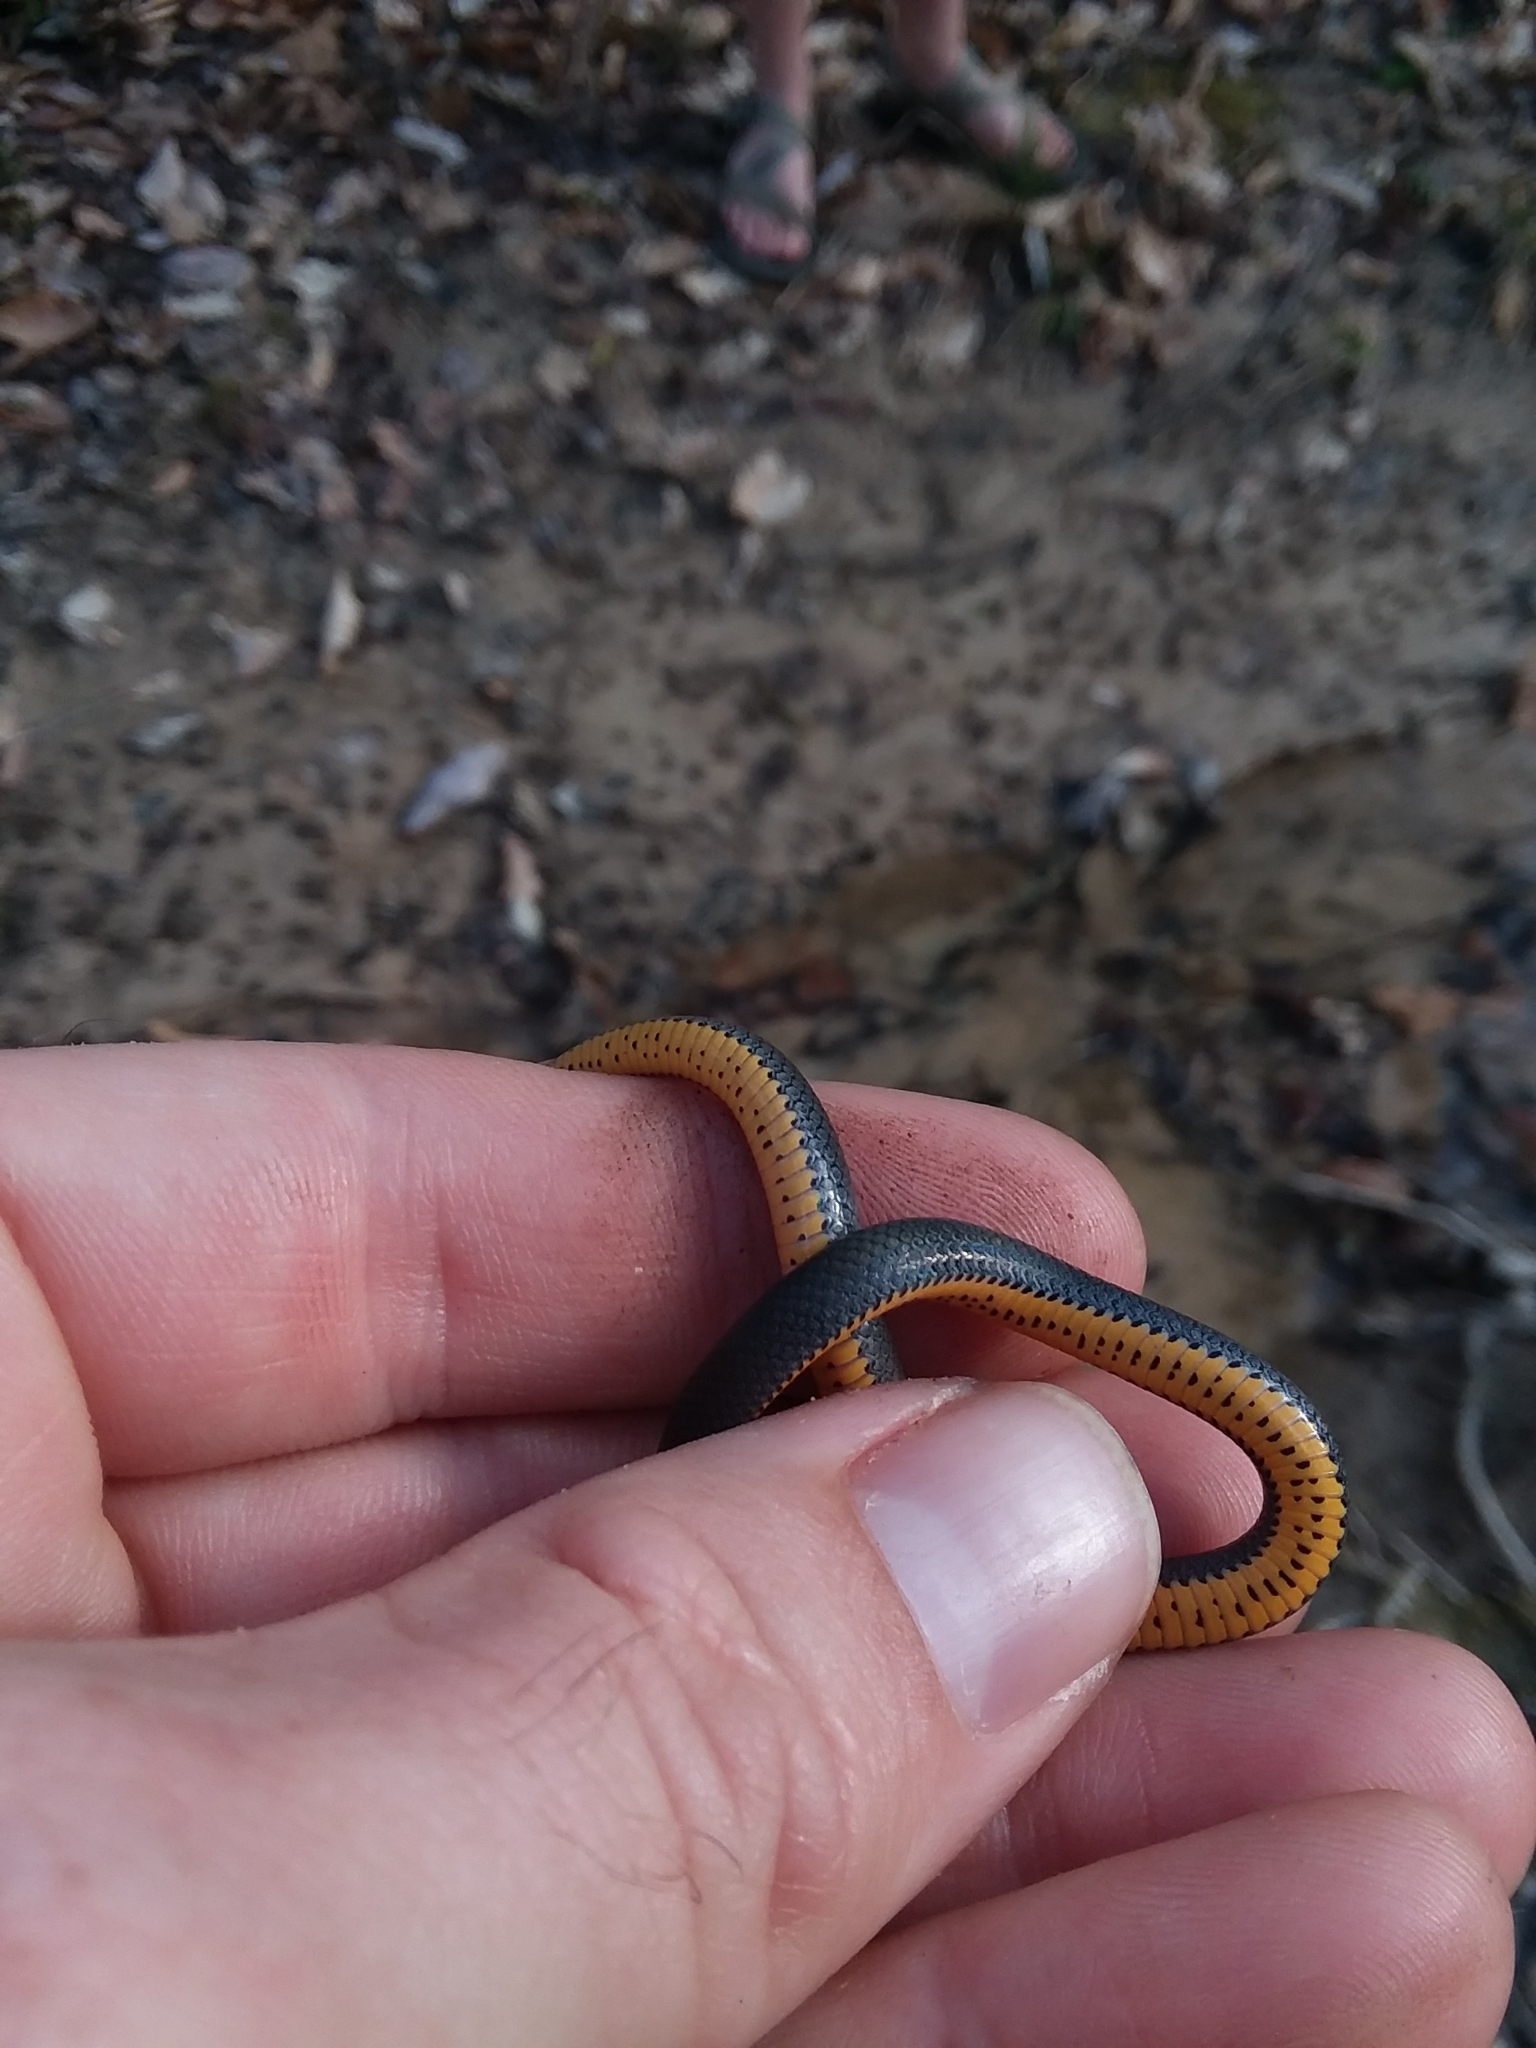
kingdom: Animalia
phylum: Chordata
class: Squamata
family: Colubridae
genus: Diadophis
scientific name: Diadophis punctatus
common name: Ringneck snake
